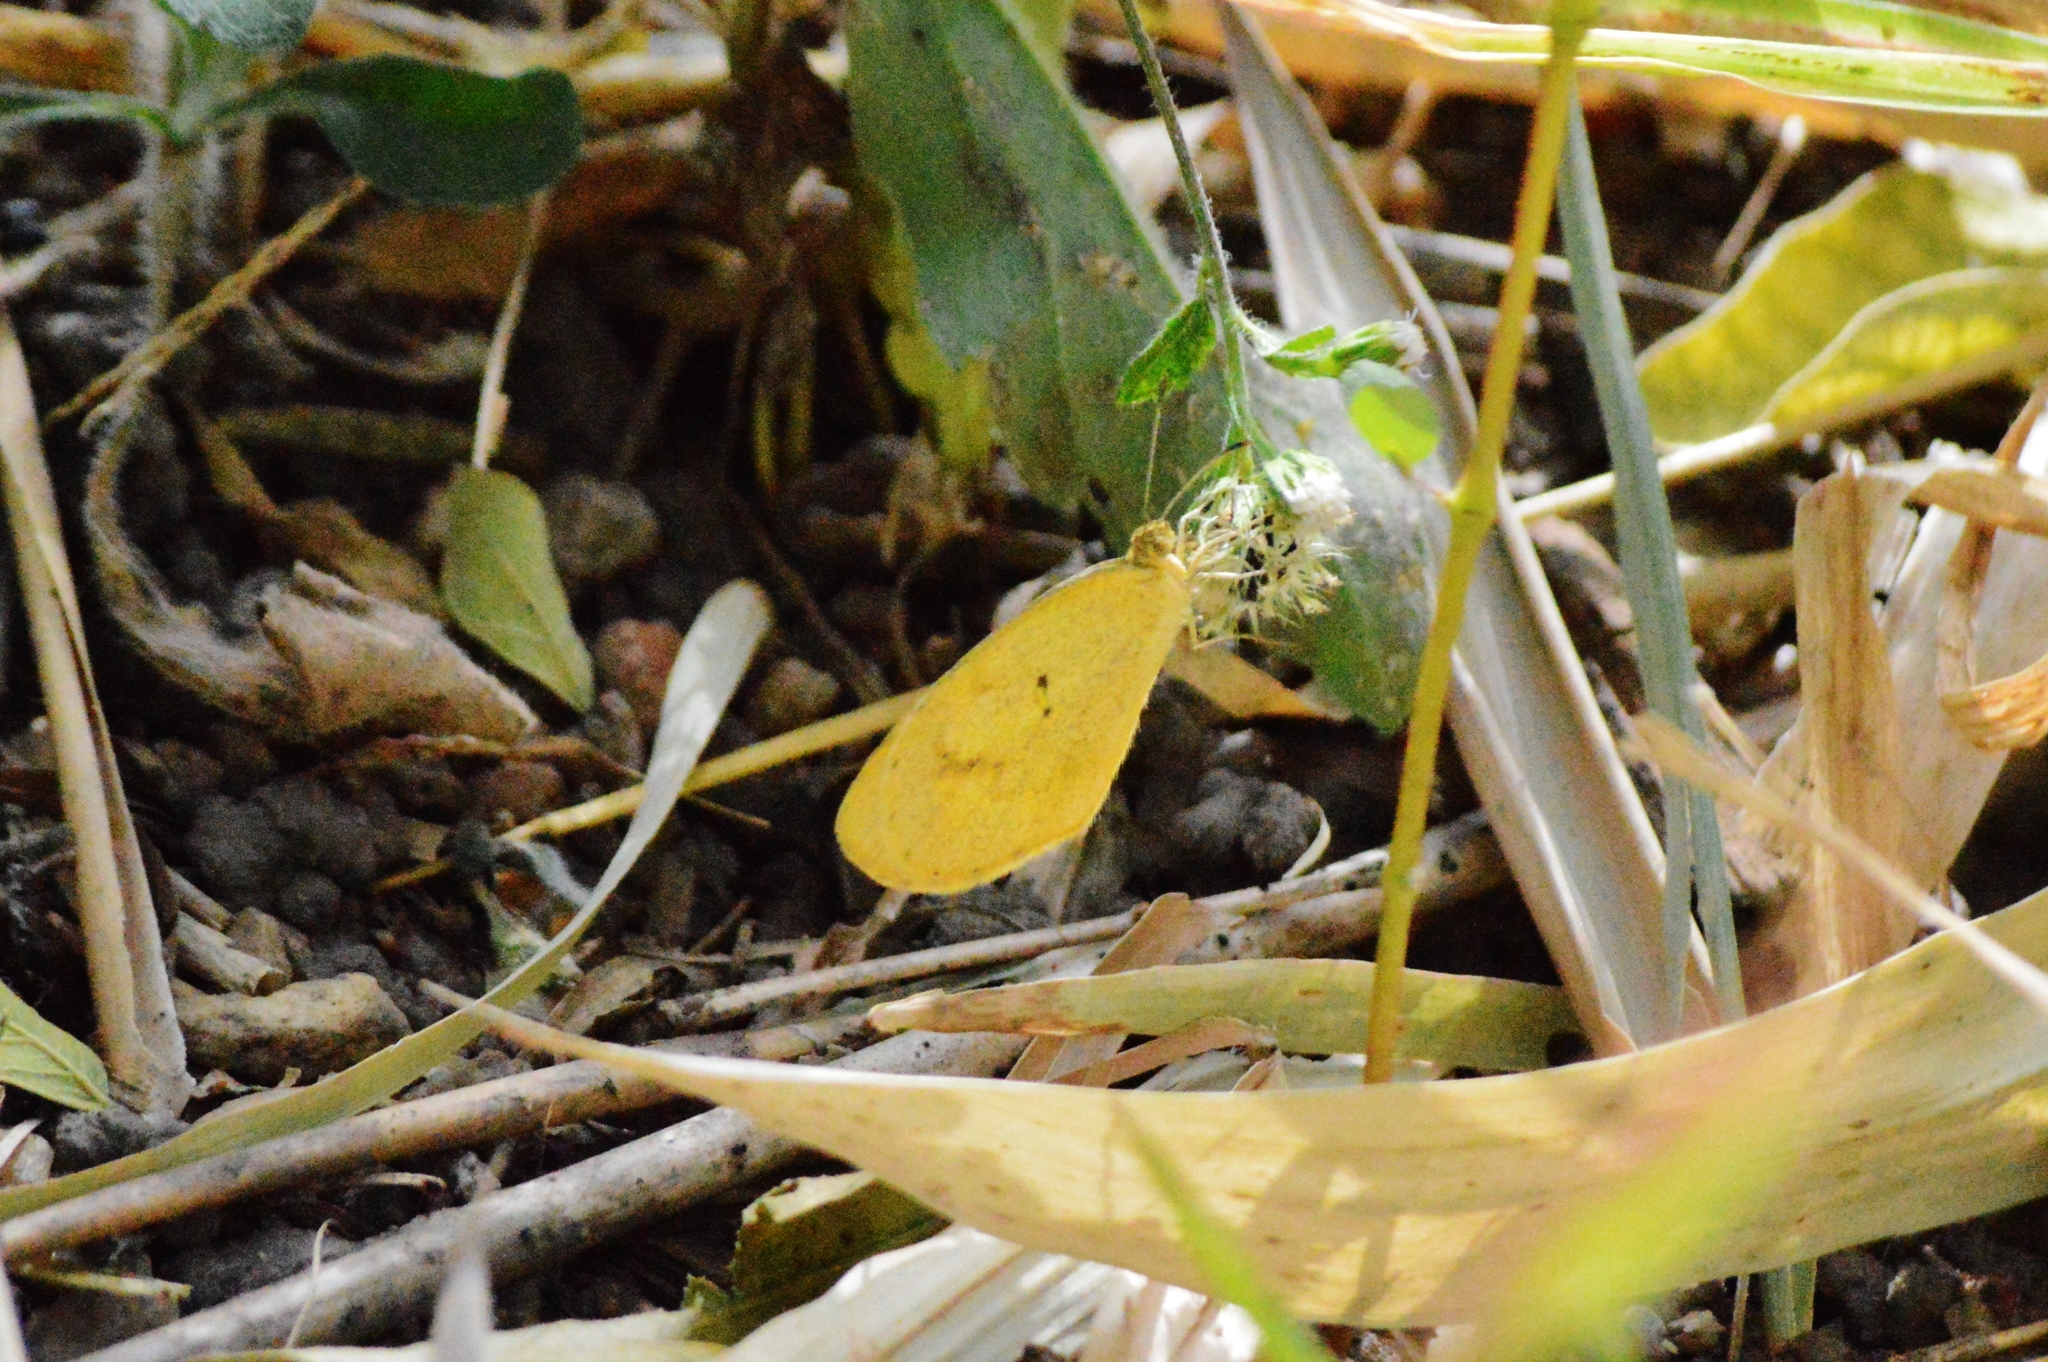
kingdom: Animalia
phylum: Arthropoda
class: Insecta
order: Lepidoptera
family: Pieridae
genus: Eurema
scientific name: Eurema elathea
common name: Banded yellow
